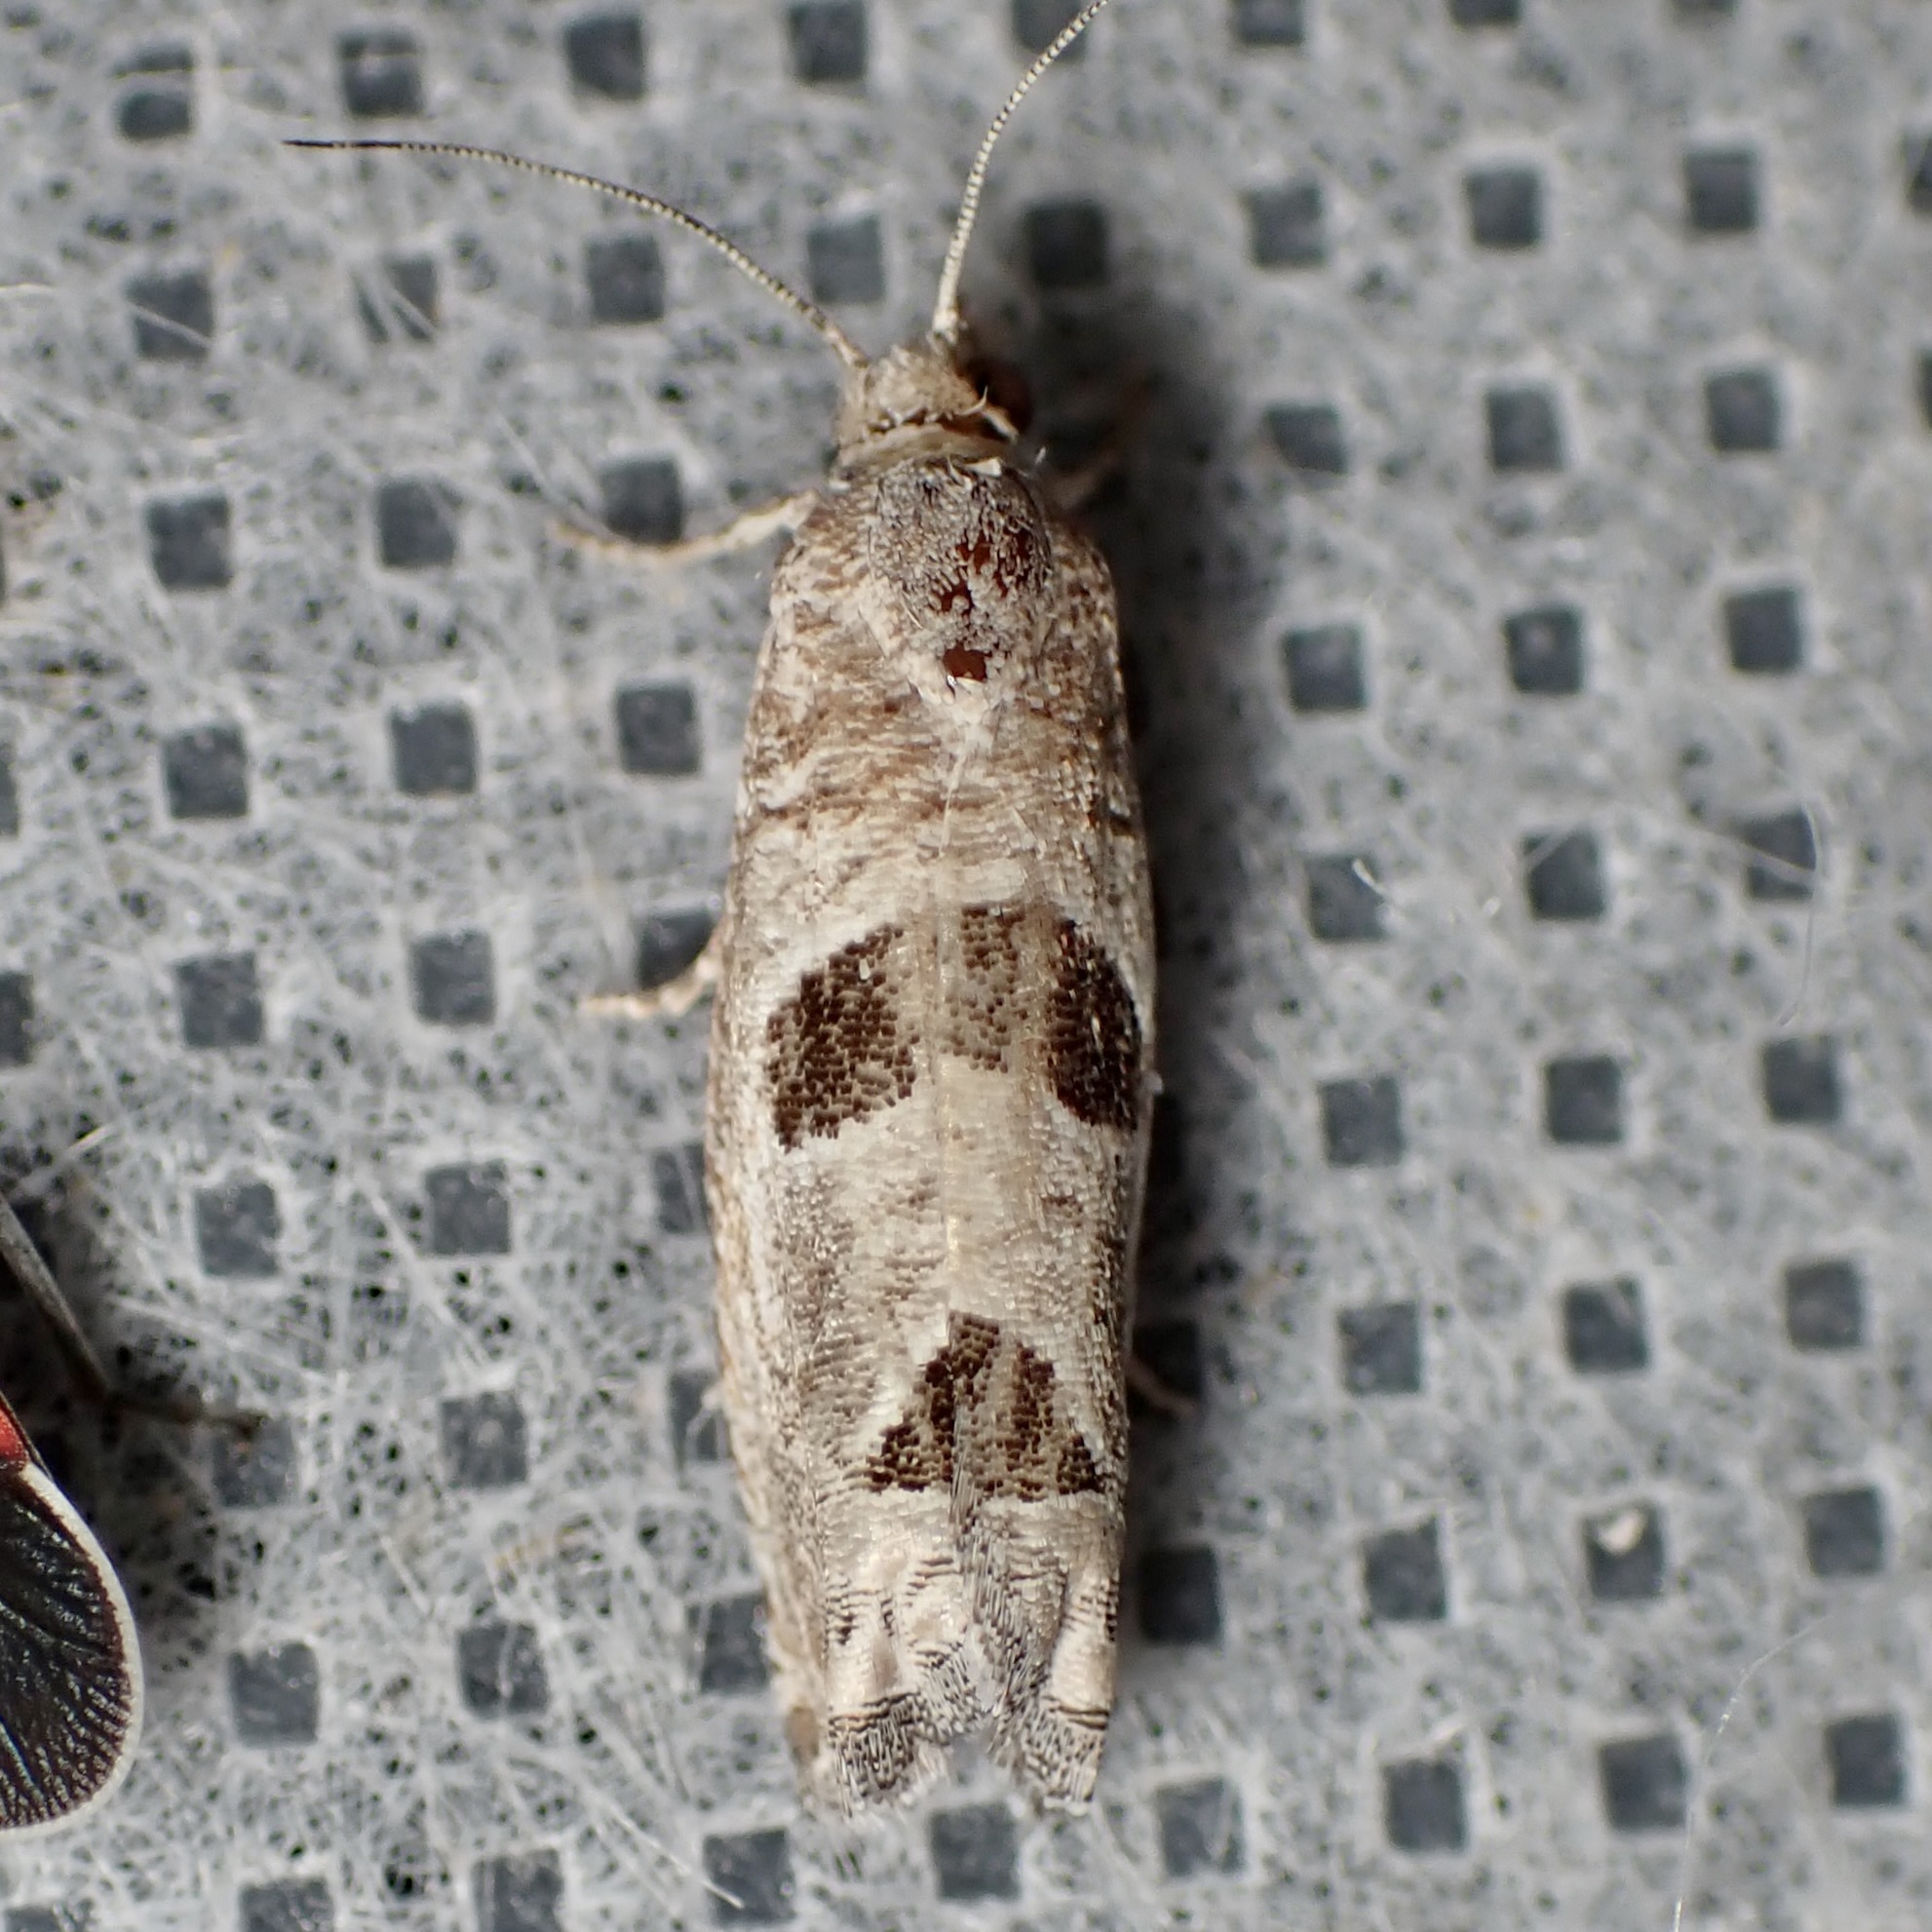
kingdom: Animalia
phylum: Arthropoda
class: Insecta
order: Lepidoptera
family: Tortricidae
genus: Pelochrista
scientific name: Pelochrista mirosignata
